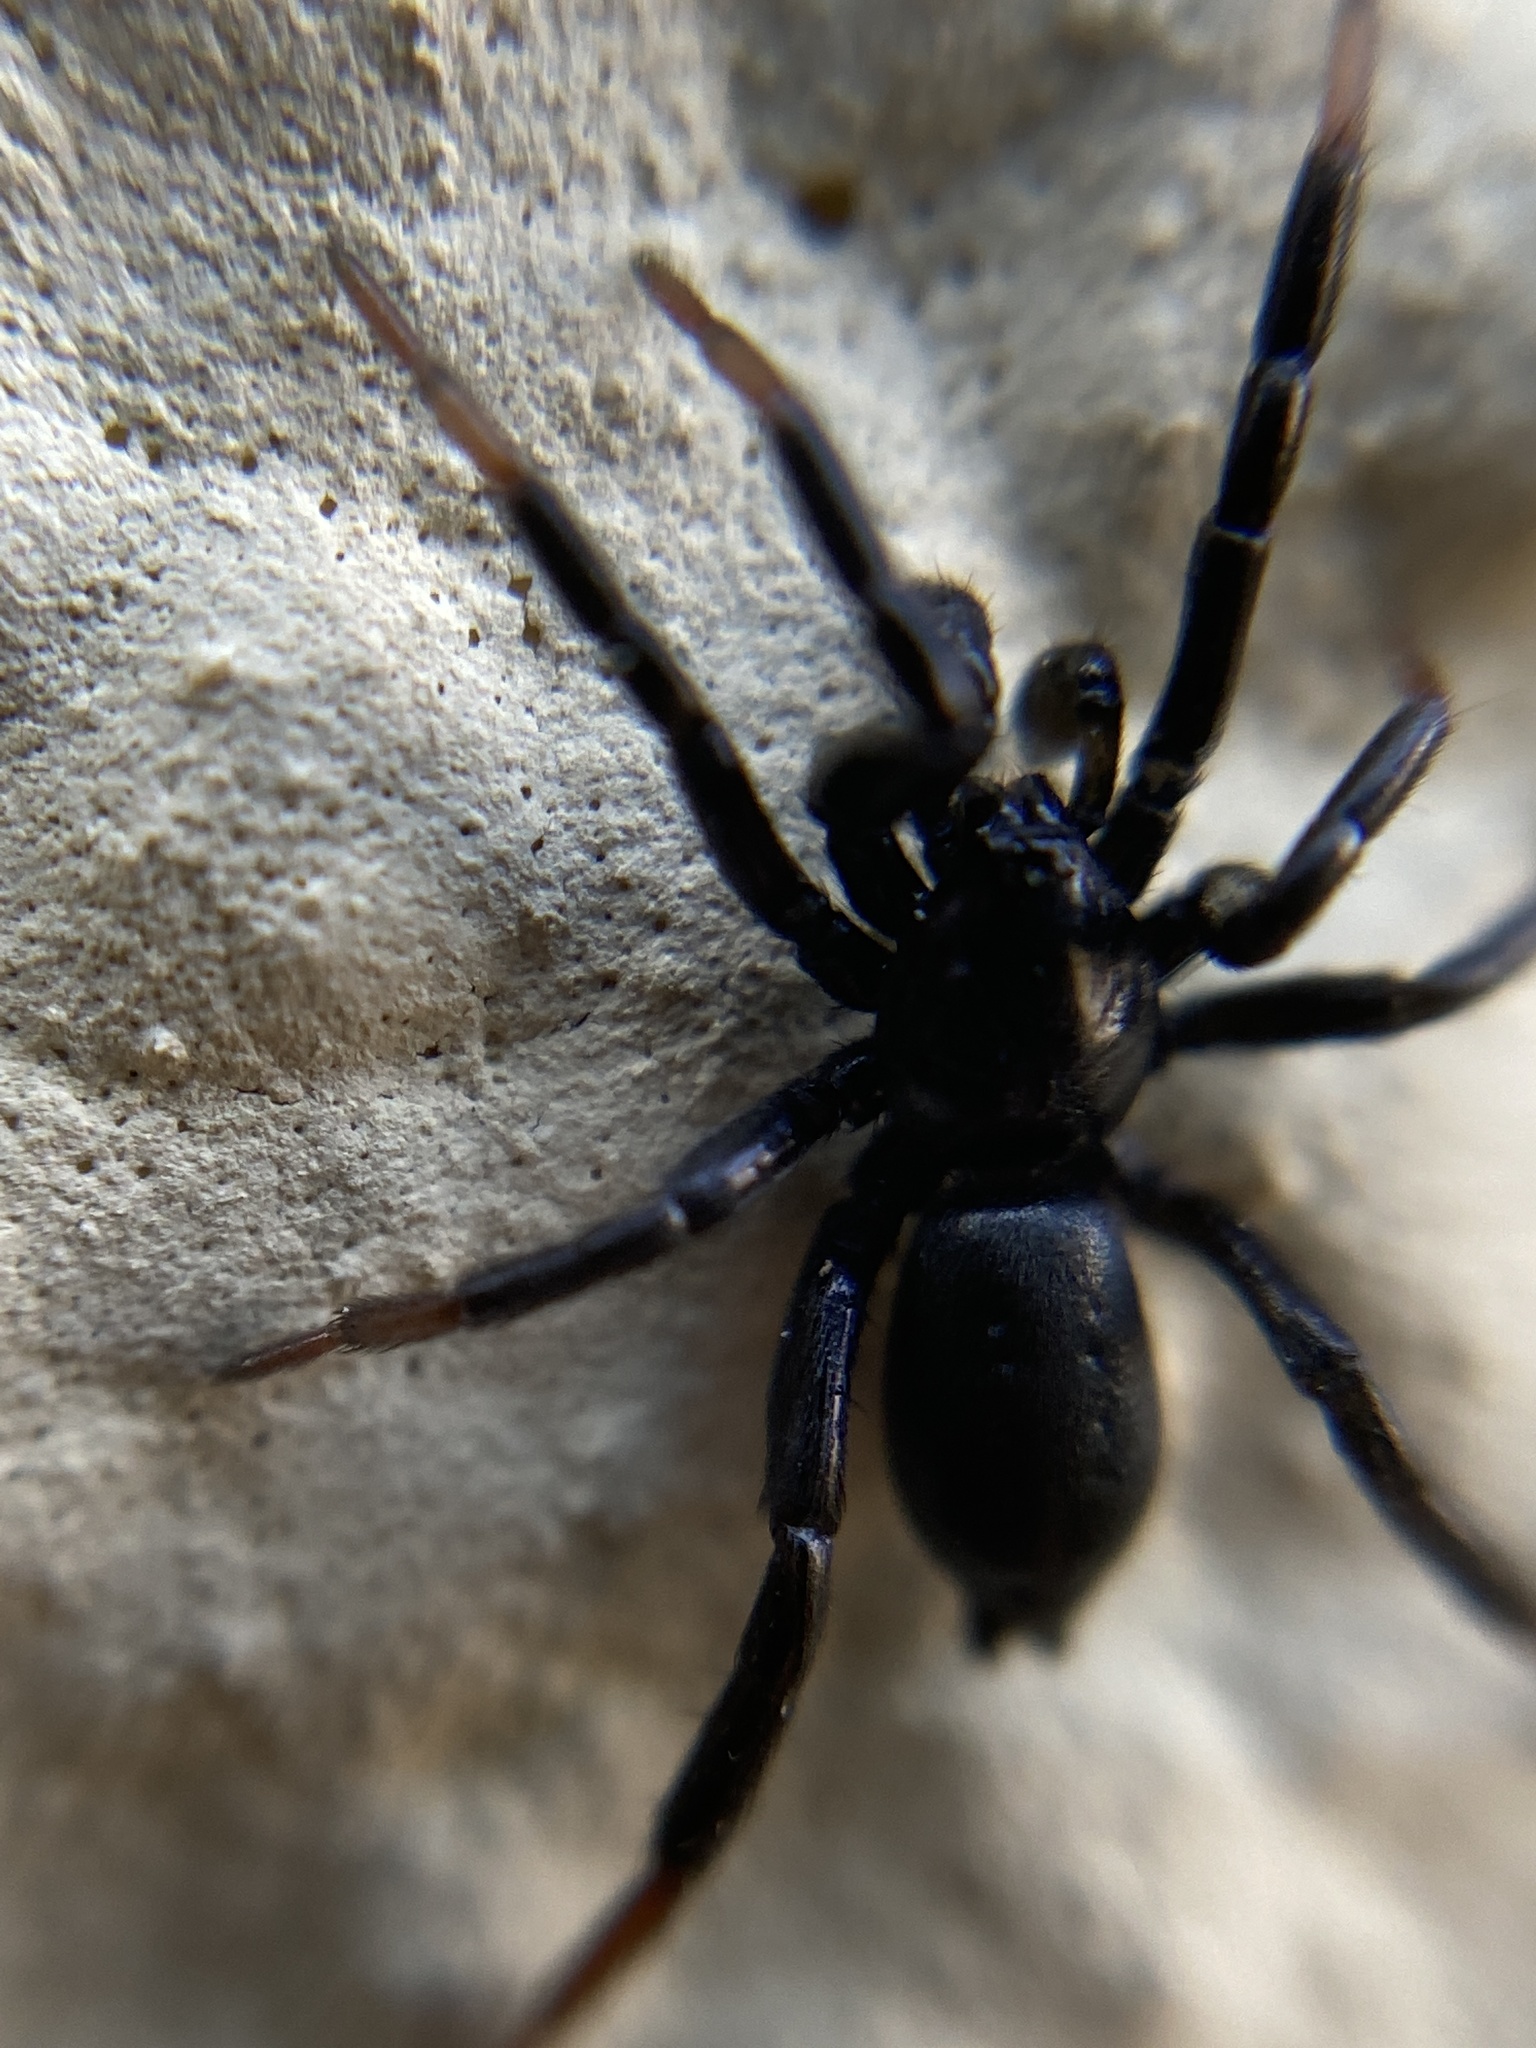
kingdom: Animalia
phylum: Arthropoda
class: Arachnida
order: Araneae
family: Gnaphosidae
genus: Trachyzelotes
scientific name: Trachyzelotes pedestris
